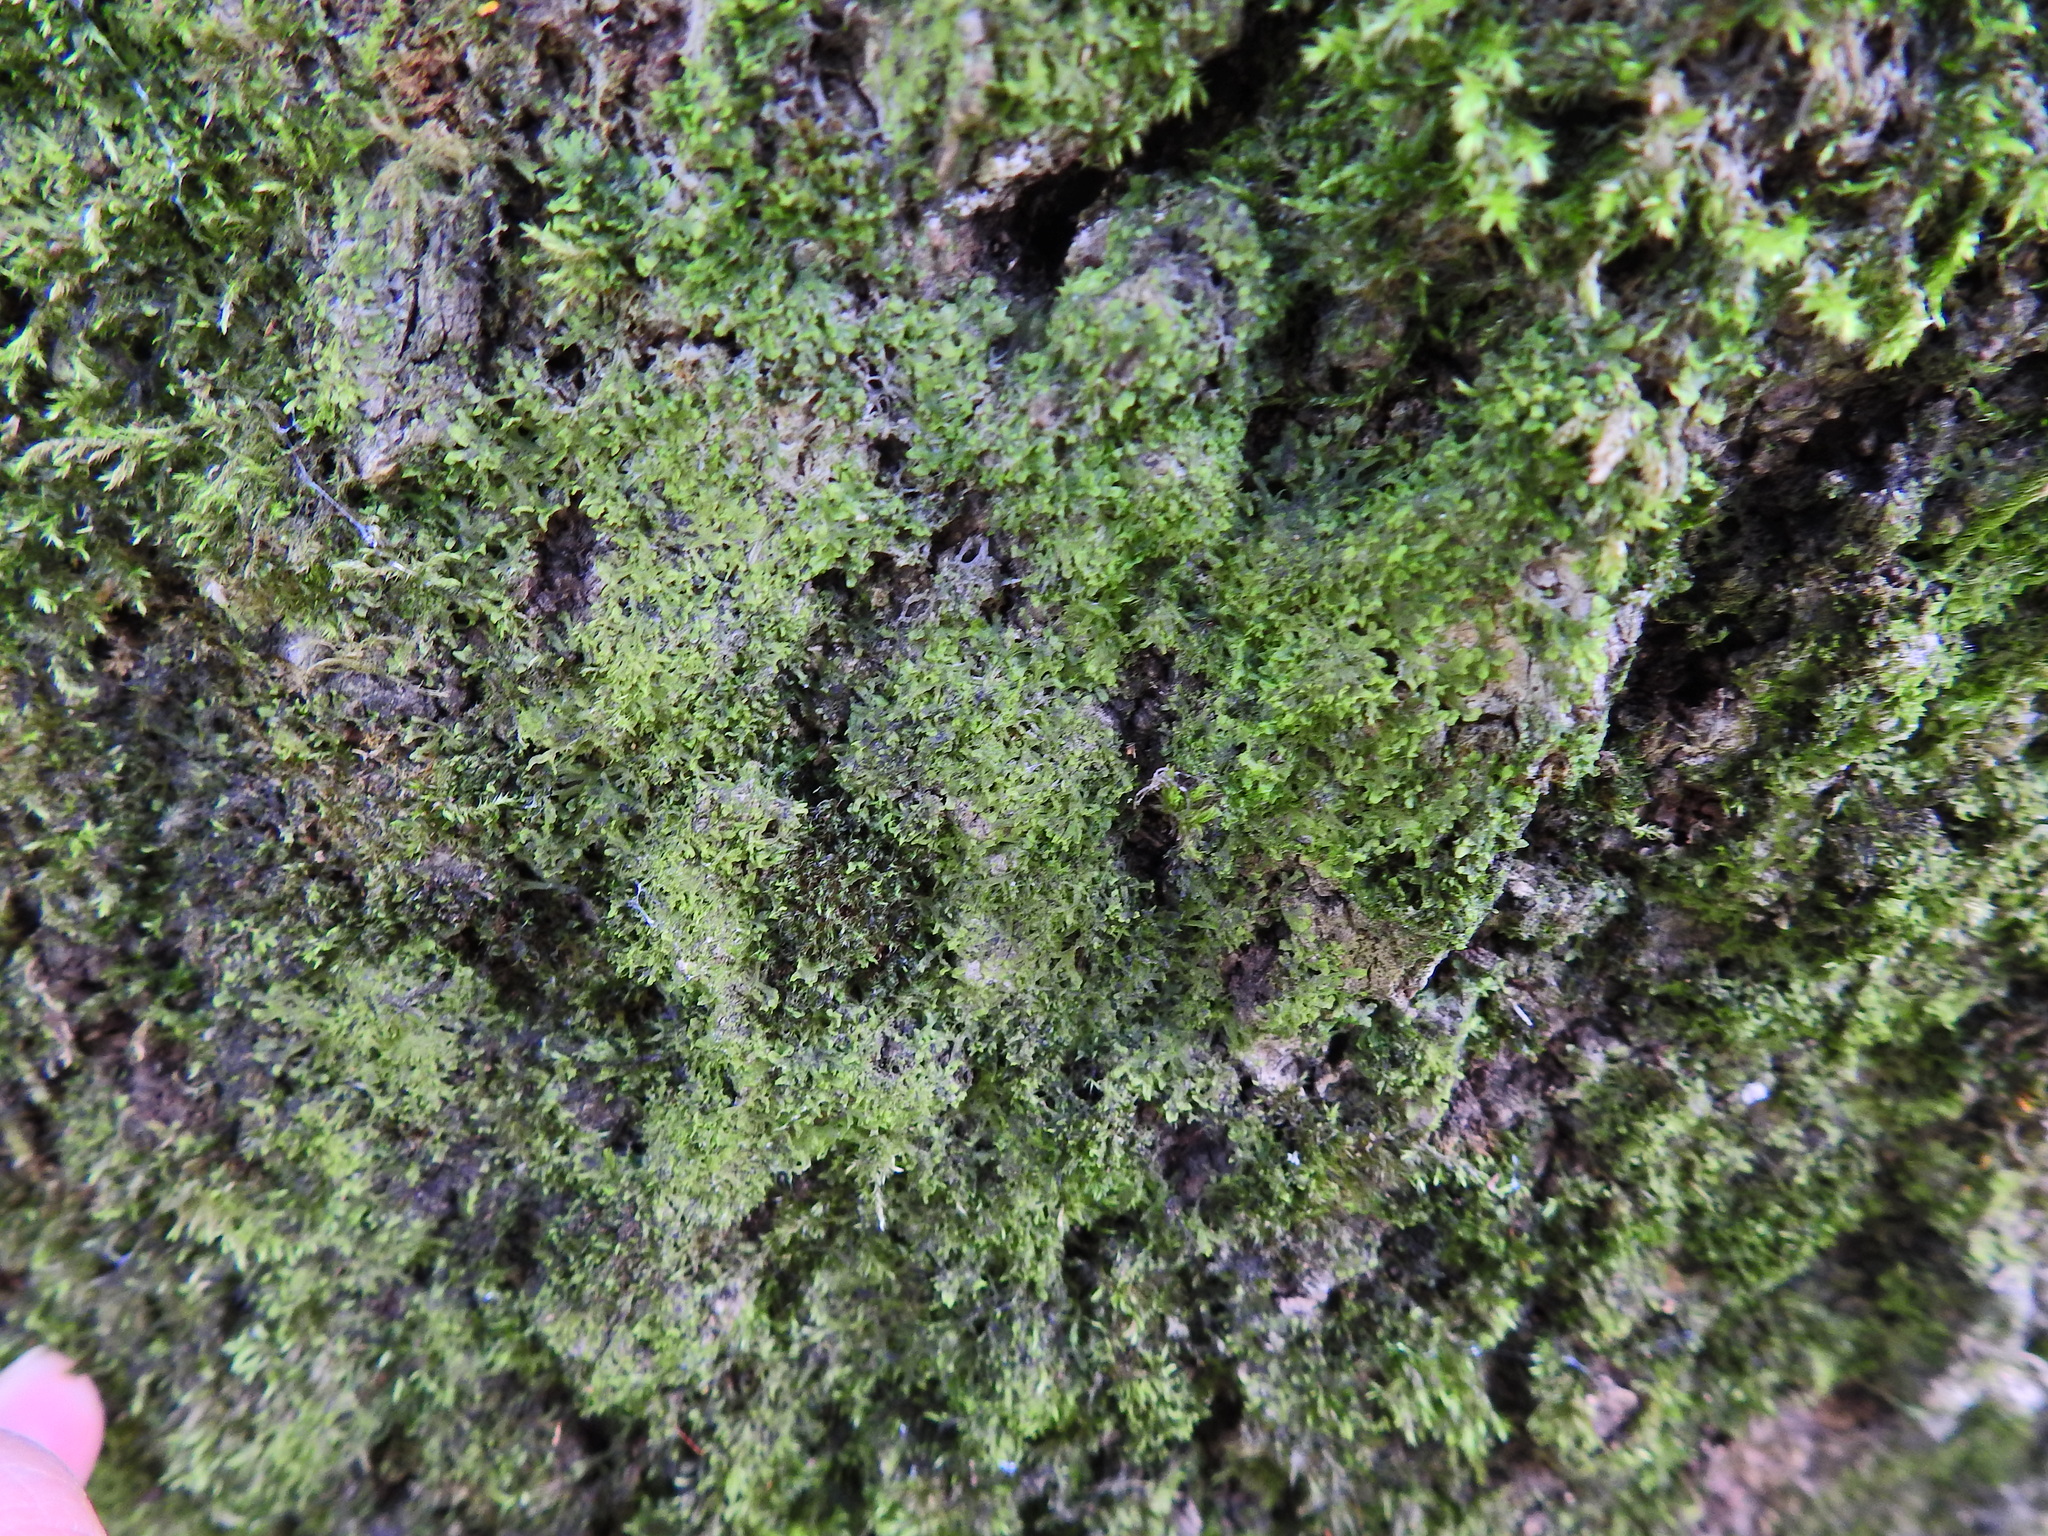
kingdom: Plantae
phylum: Marchantiophyta
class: Jungermanniopsida
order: Metzgeriales
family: Metzgeriaceae
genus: Metzgeria
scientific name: Metzgeria violacea
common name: Blueish veilwort
